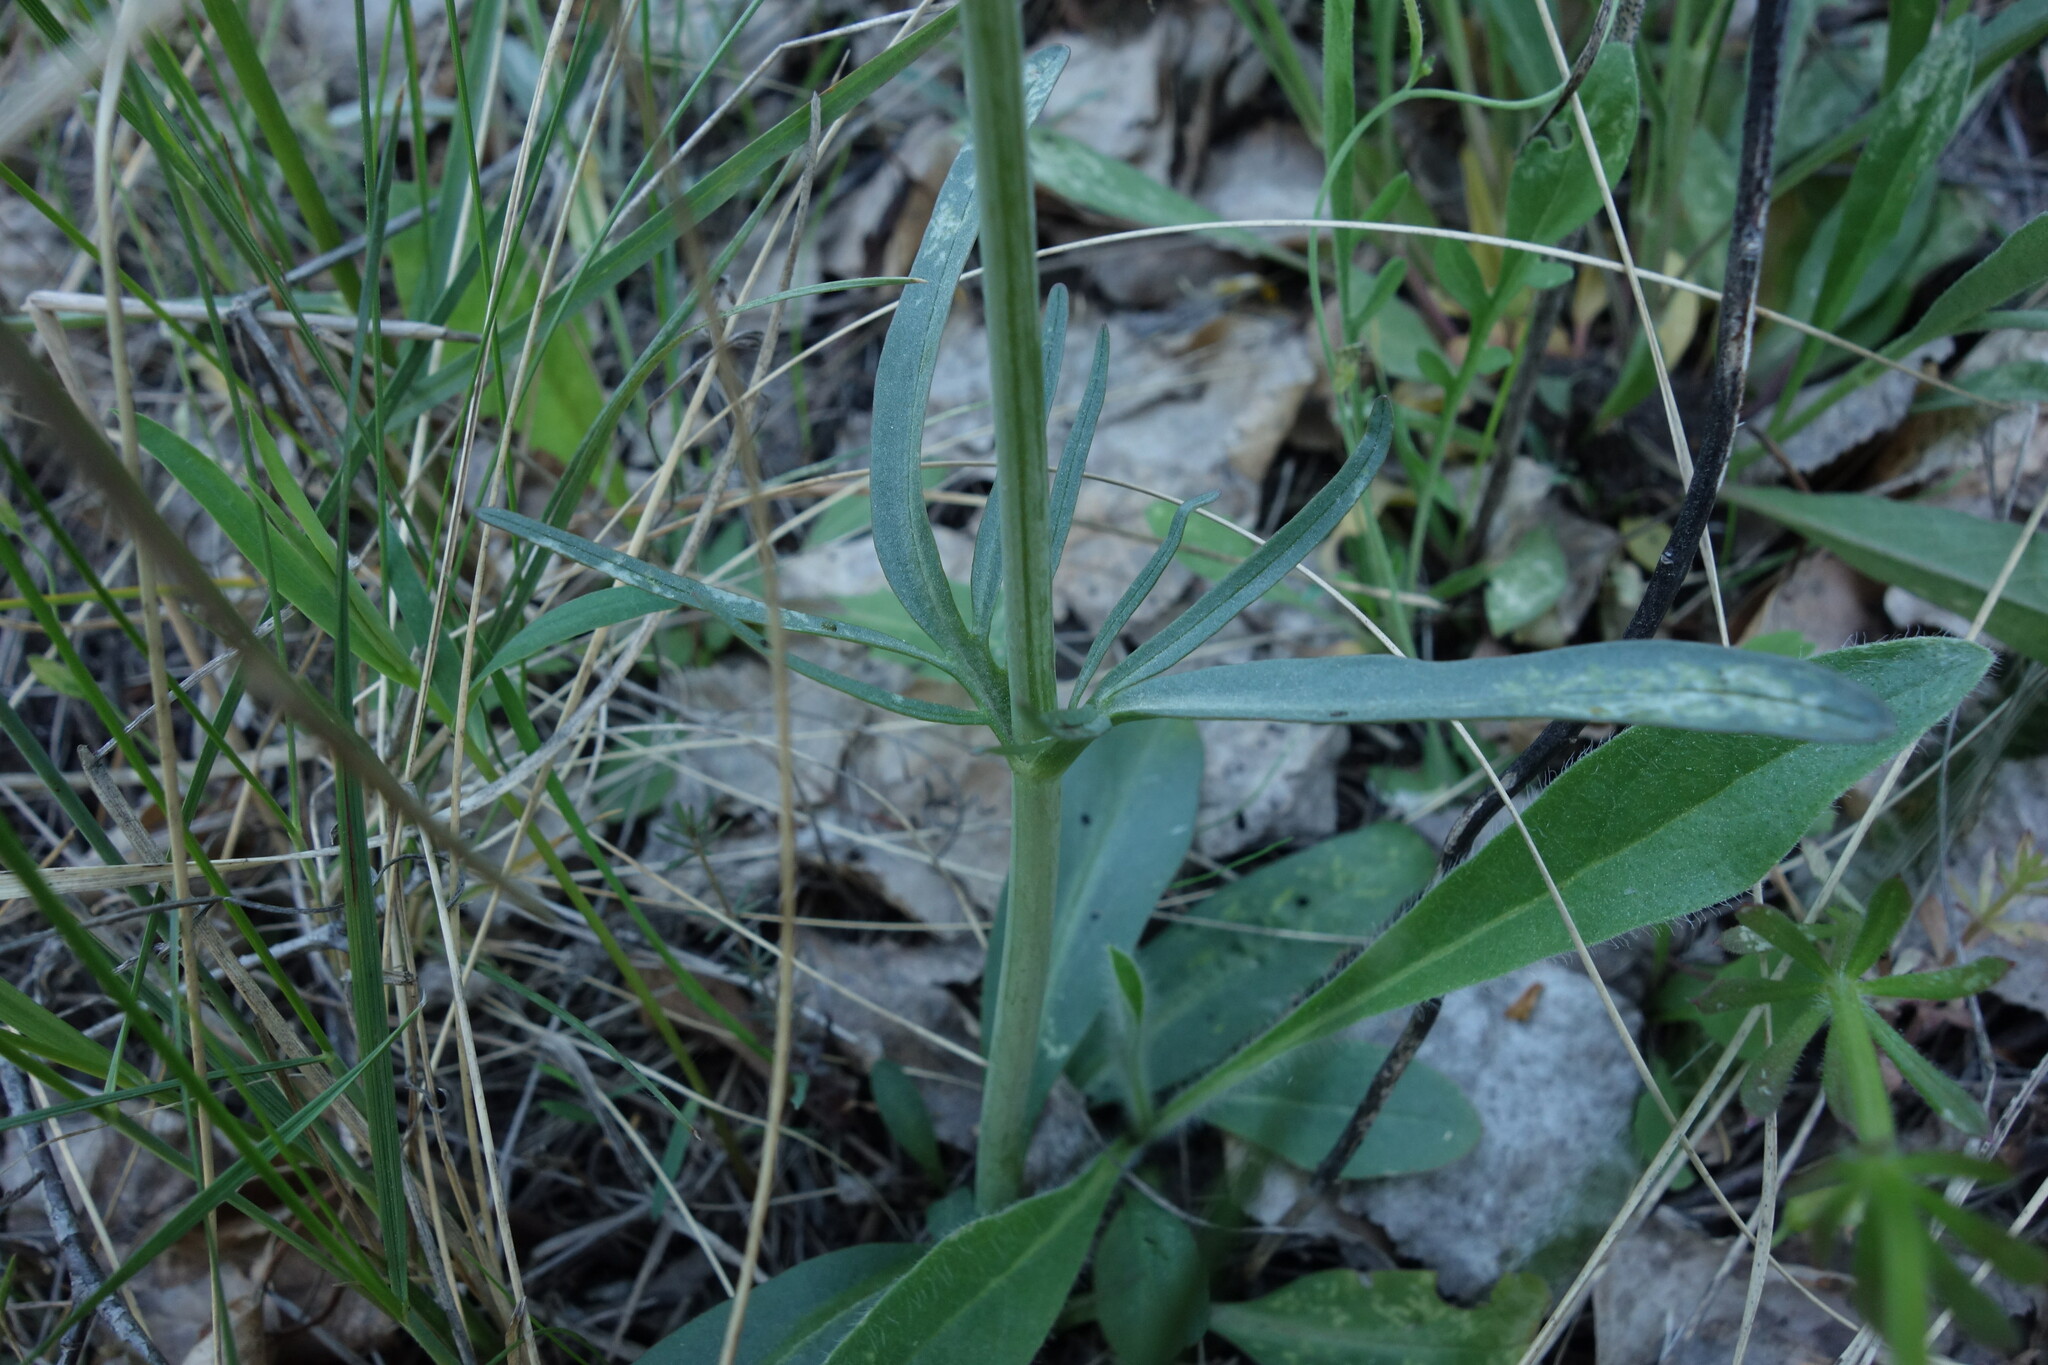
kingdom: Plantae
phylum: Tracheophyta
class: Magnoliopsida
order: Dipsacales
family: Caprifoliaceae
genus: Valeriana
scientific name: Valeriana tuberosa
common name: Tuberous valerian
